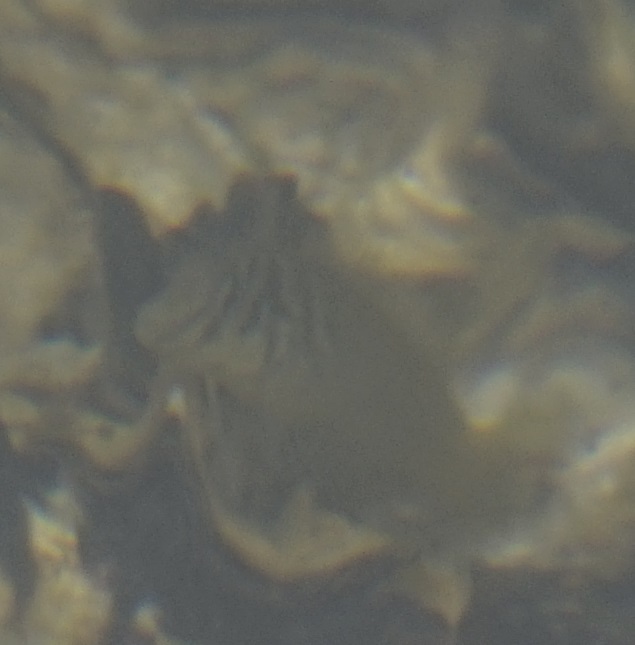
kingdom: Animalia
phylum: Chordata
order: Perciformes
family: Blenniidae
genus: Omobranchus
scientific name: Omobranchus anolius
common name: Oyster blenny
